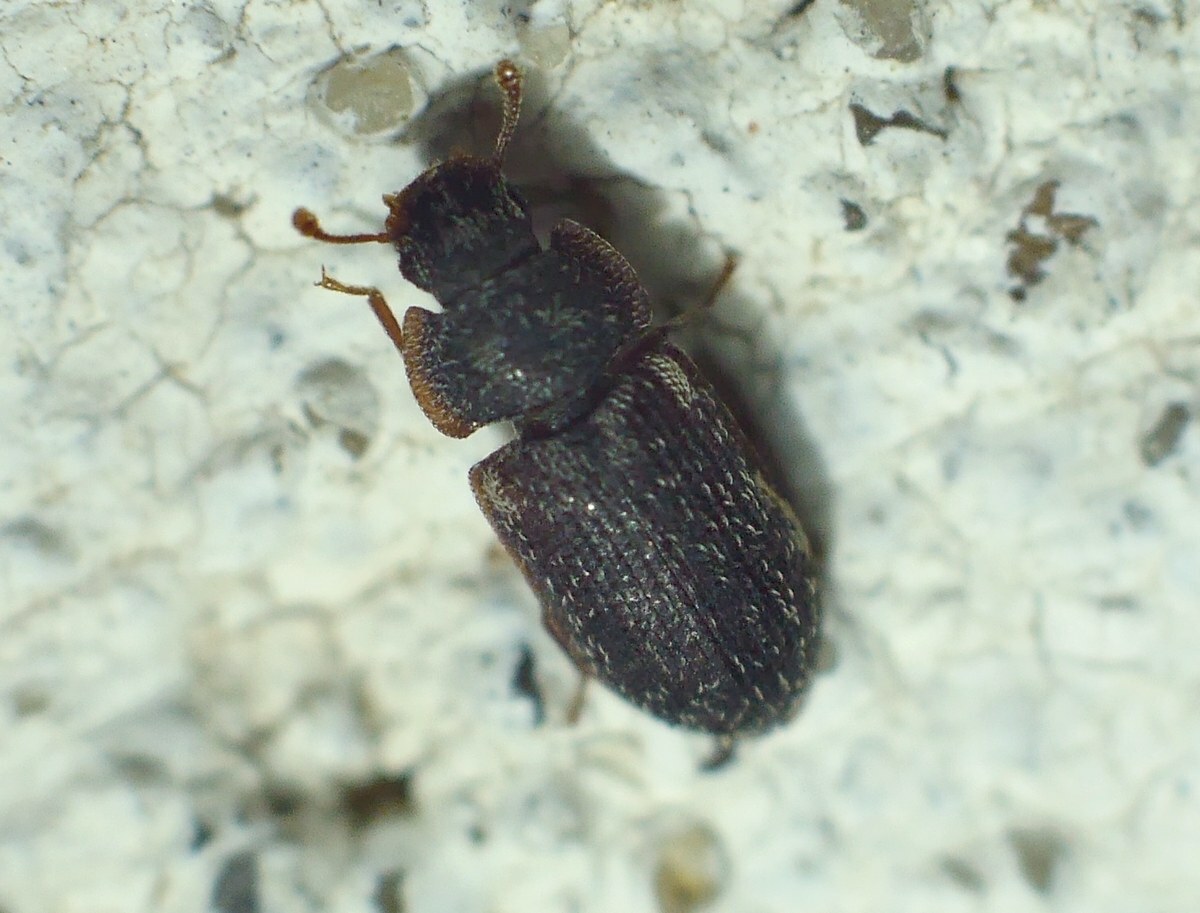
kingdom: Animalia
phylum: Arthropoda
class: Insecta
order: Coleoptera
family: Zopheridae
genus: Colobicus
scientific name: Colobicus hirtus
